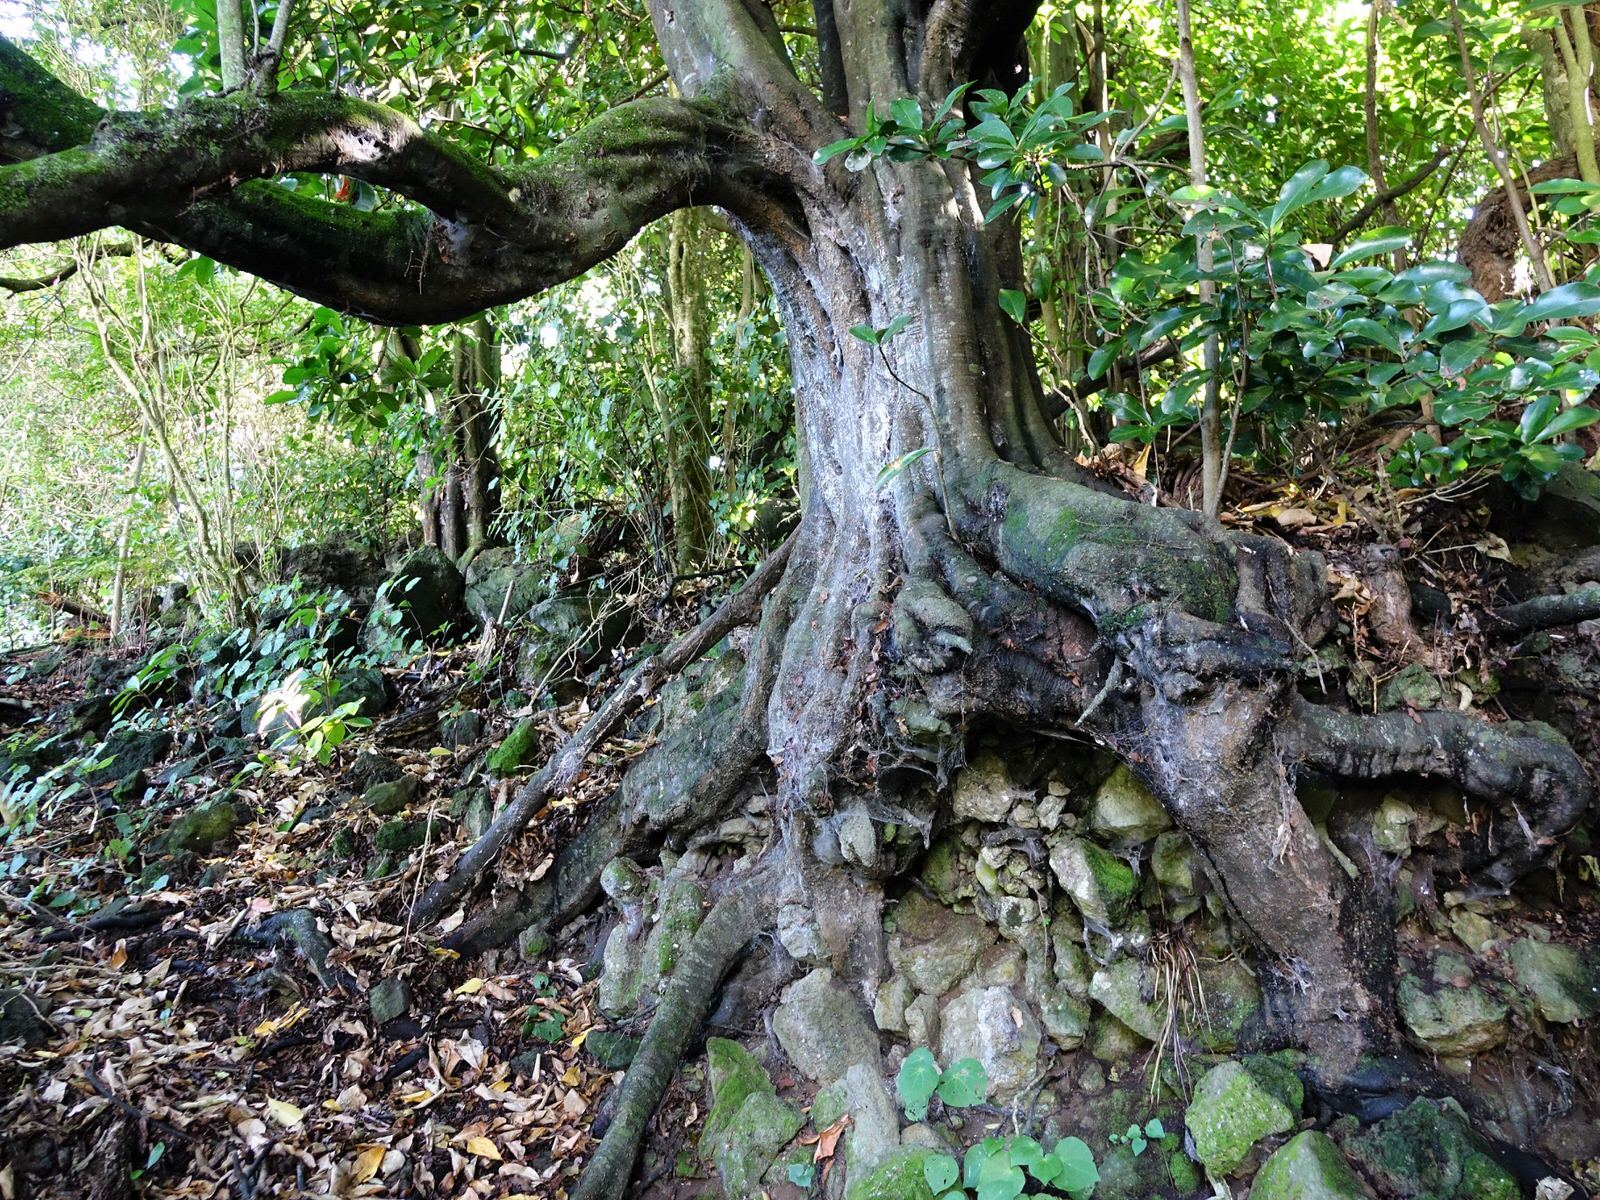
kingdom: Plantae
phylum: Tracheophyta
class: Magnoliopsida
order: Sapindales
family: Sapindaceae
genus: Alectryon
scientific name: Alectryon excelsus
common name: Three kings titoki
